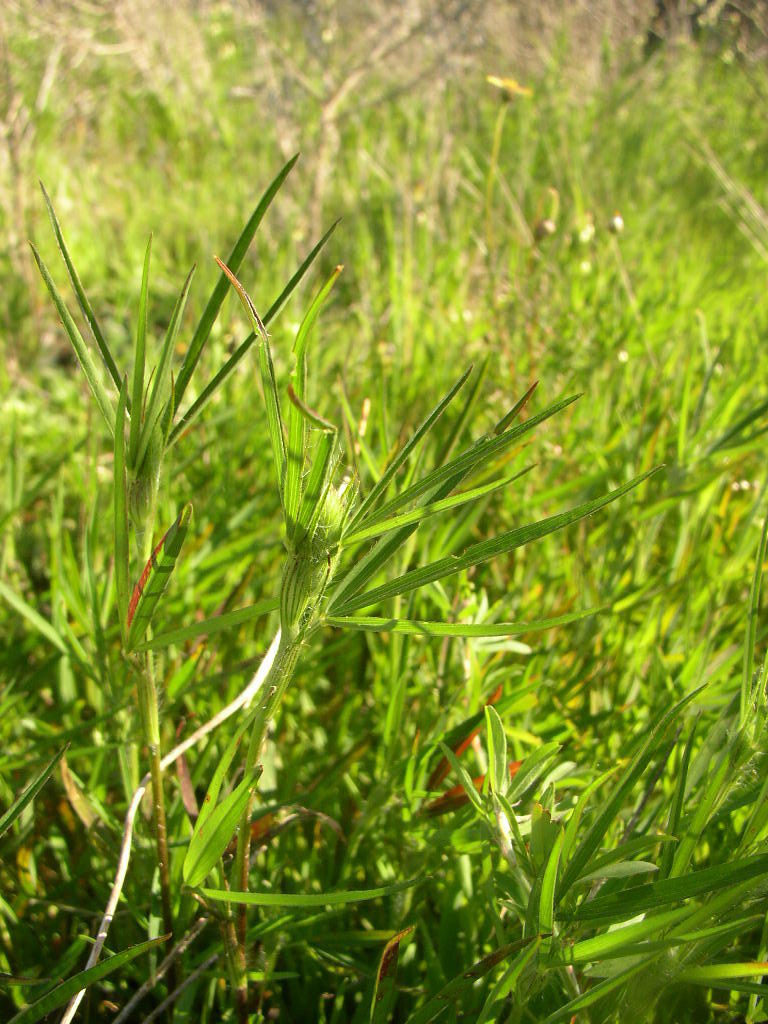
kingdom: Plantae
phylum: Tracheophyta
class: Magnoliopsida
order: Fabales
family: Fabaceae
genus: Trifolium
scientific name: Trifolium angustifolium
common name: Narrow clover
